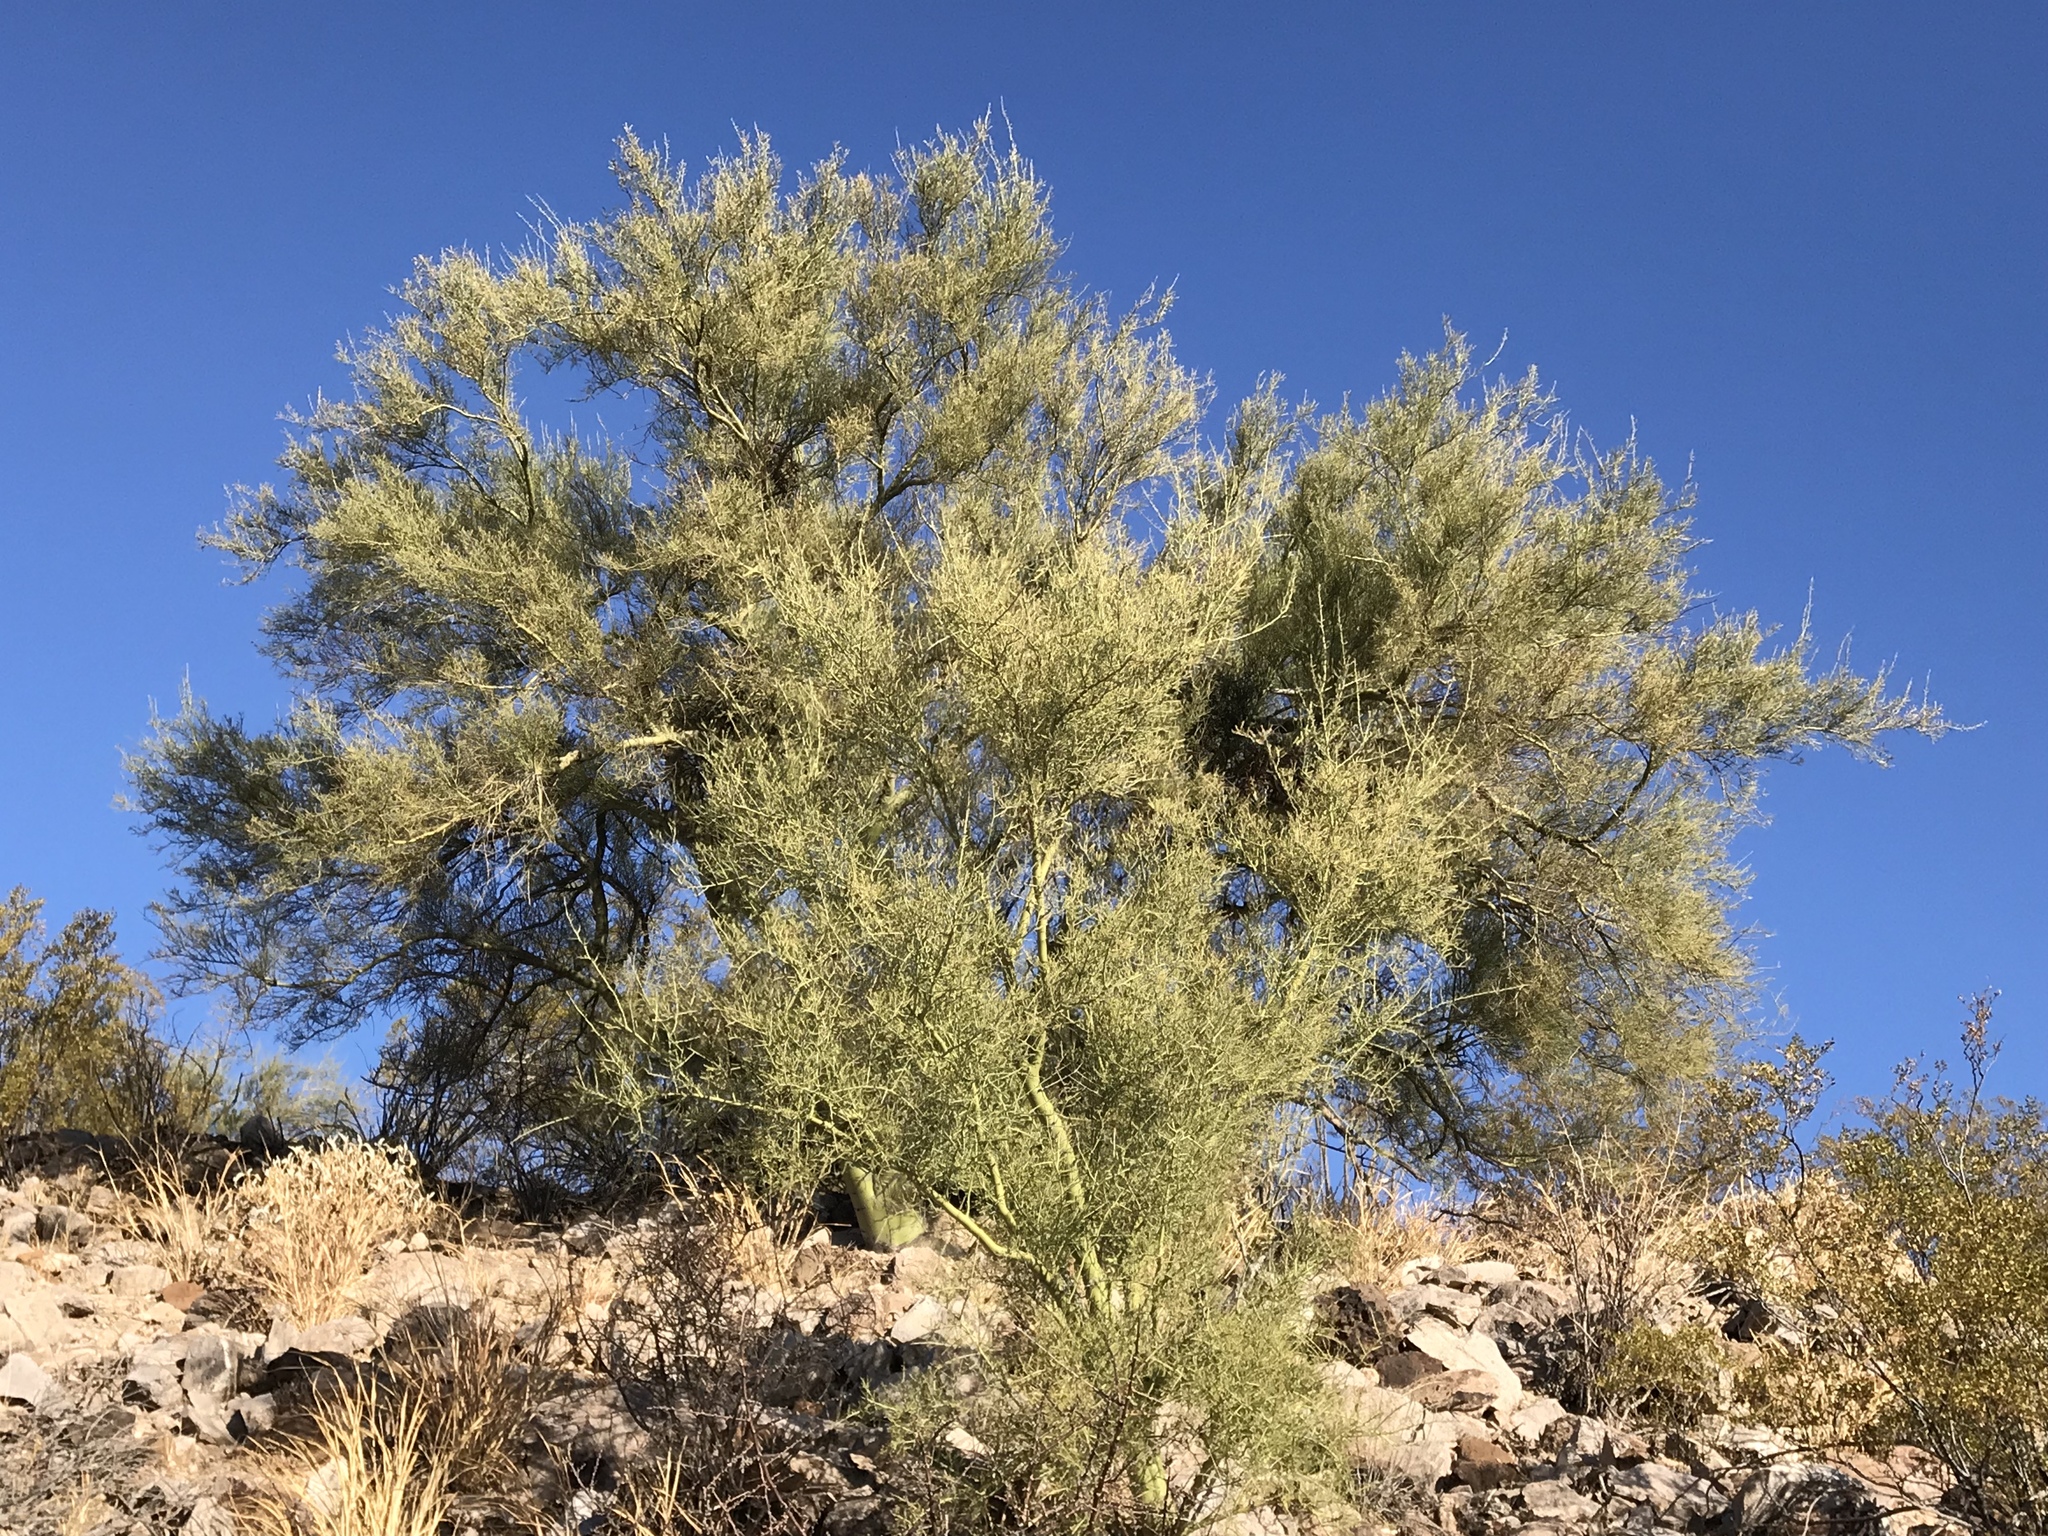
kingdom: Plantae
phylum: Tracheophyta
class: Magnoliopsida
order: Fabales
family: Fabaceae
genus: Parkinsonia
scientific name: Parkinsonia microphylla
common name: Yellow paloverde
